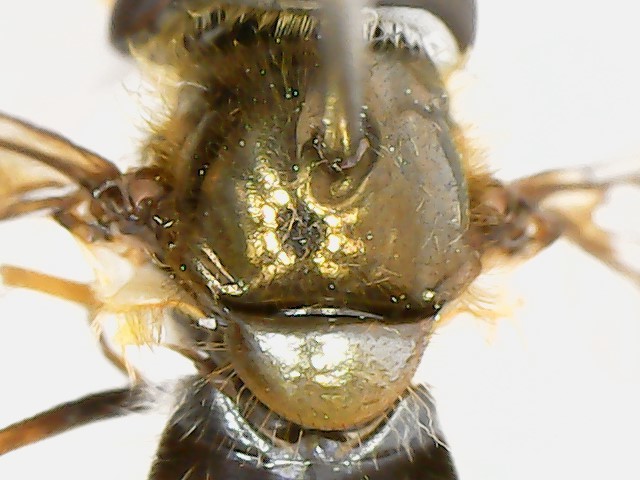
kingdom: Animalia
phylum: Arthropoda
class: Insecta
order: Diptera
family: Syrphidae
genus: Eupeodes
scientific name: Eupeodes
